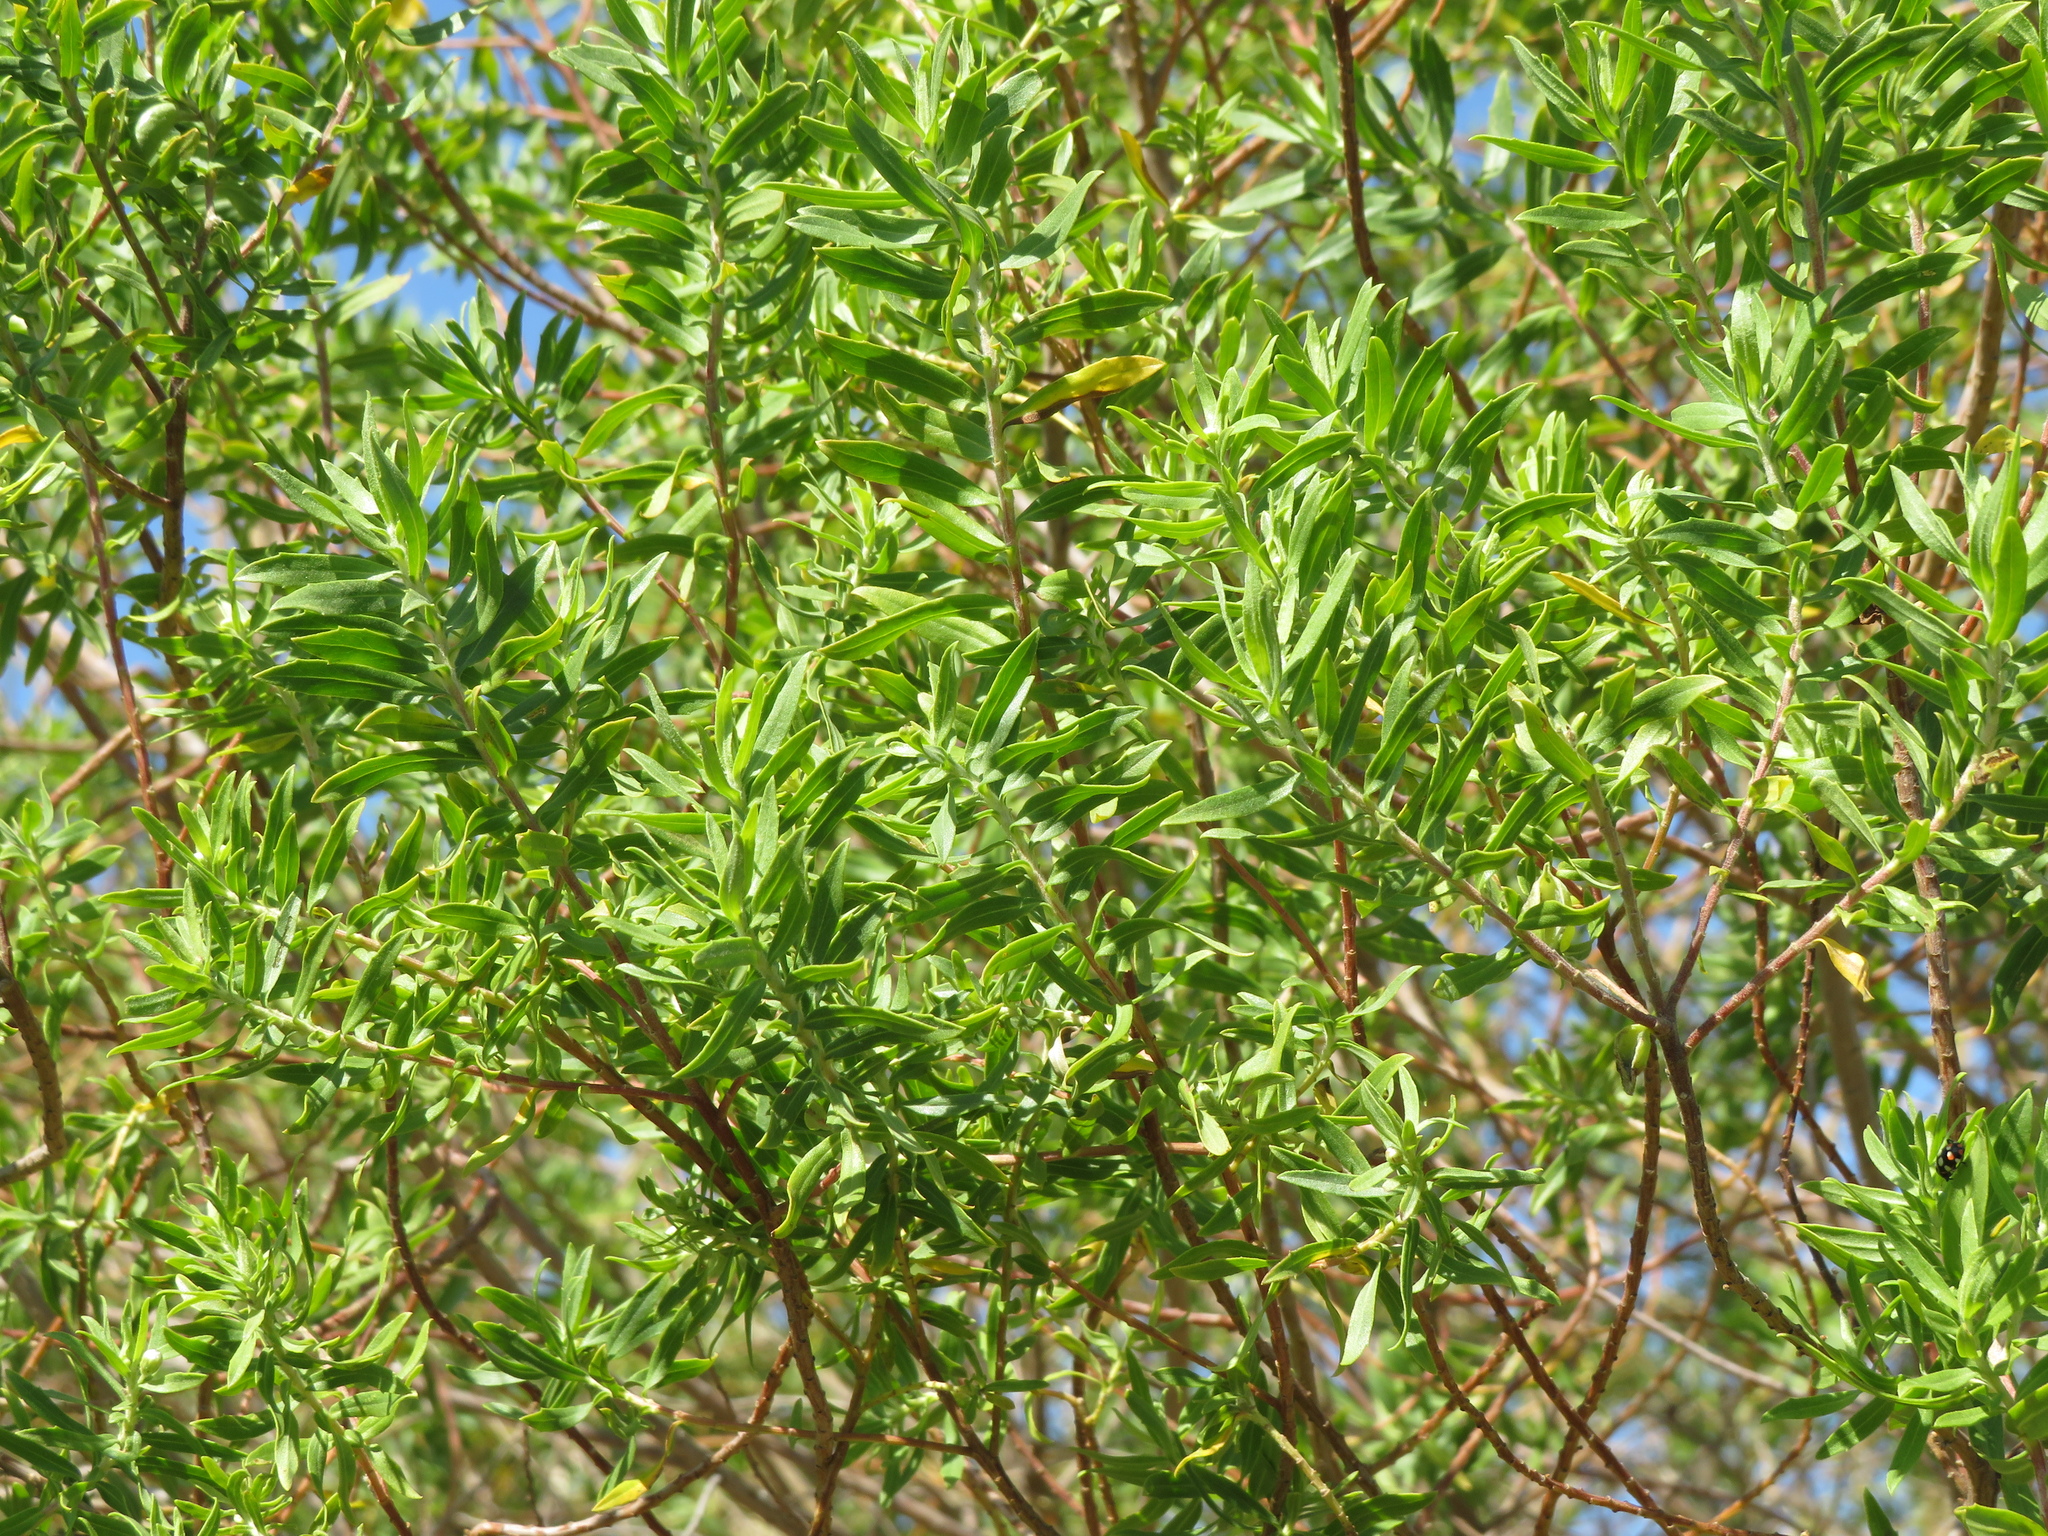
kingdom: Plantae
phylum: Tracheophyta
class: Magnoliopsida
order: Asterales
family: Asteraceae
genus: Baccharis
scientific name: Baccharis dracunculifolia
